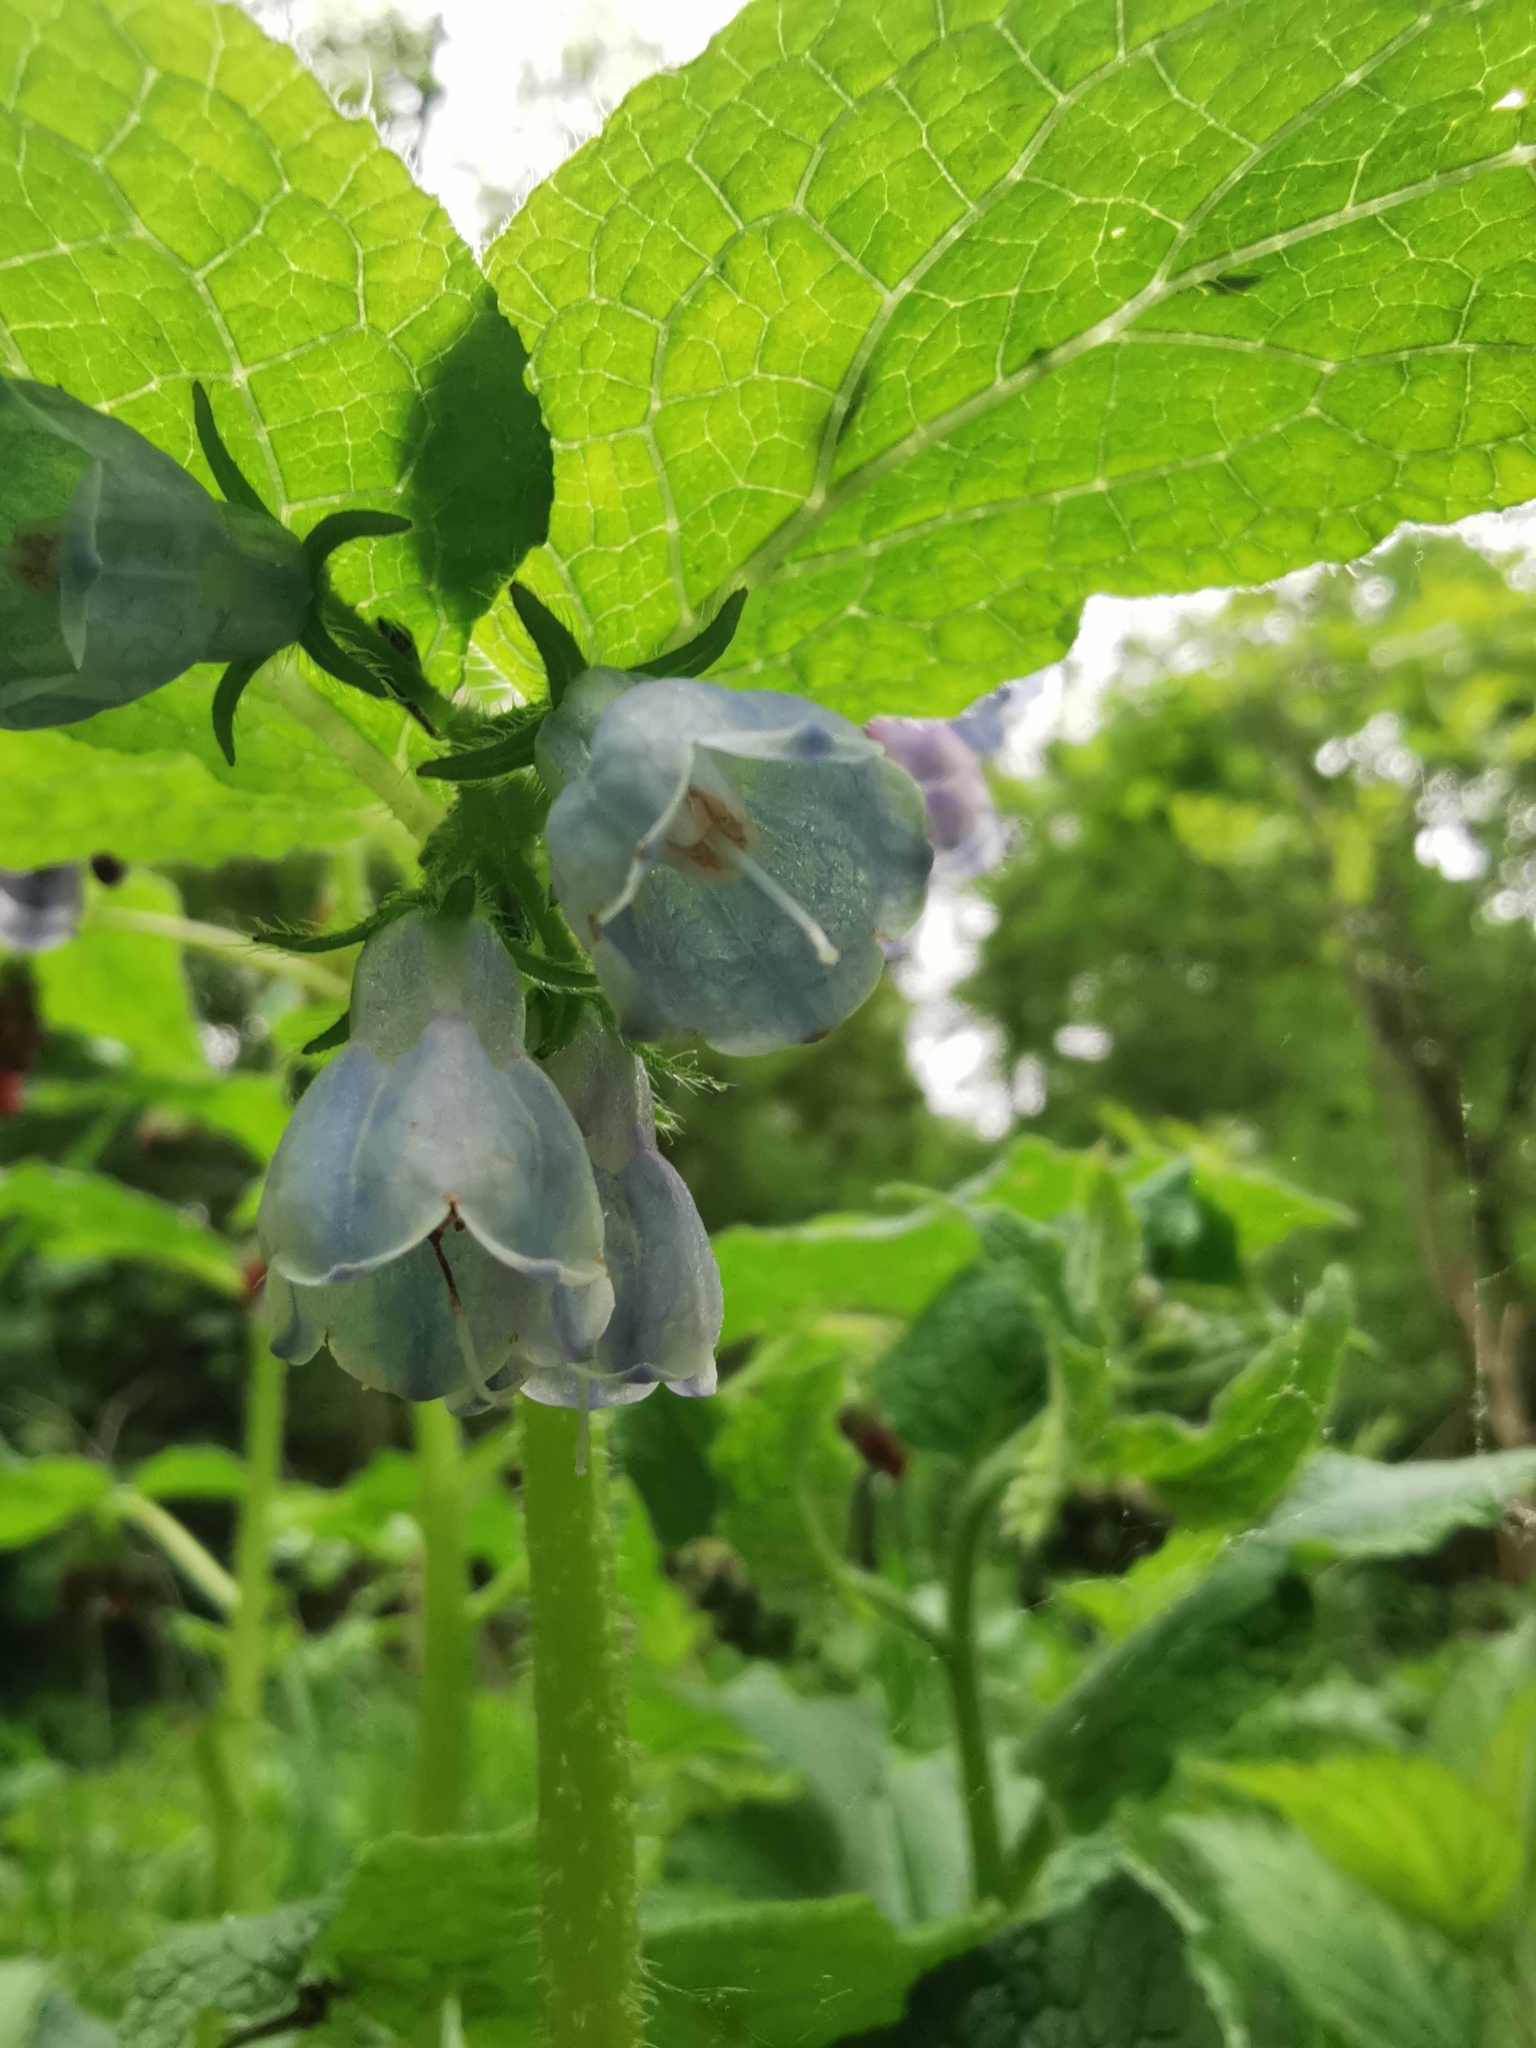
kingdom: Plantae
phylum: Tracheophyta
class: Magnoliopsida
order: Boraginales
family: Boraginaceae
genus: Symphytum
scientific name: Symphytum officinale
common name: Common comfrey
